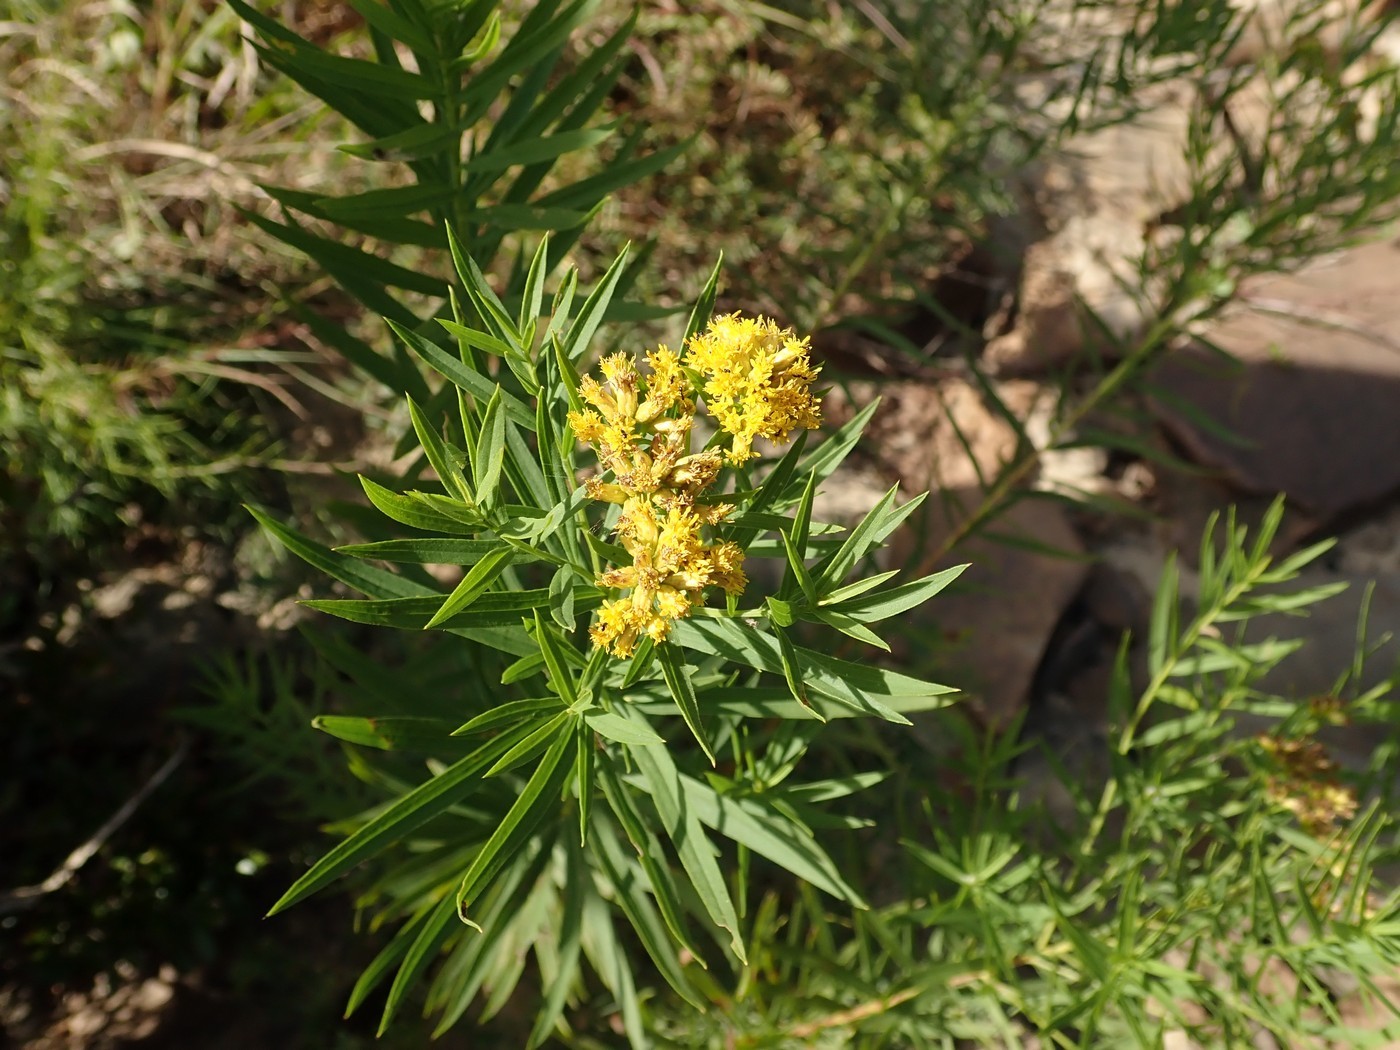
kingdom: Plantae
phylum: Tracheophyta
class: Magnoliopsida
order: Asterales
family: Asteraceae
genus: Euthamia
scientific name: Euthamia graminifolia
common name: Common goldentop
